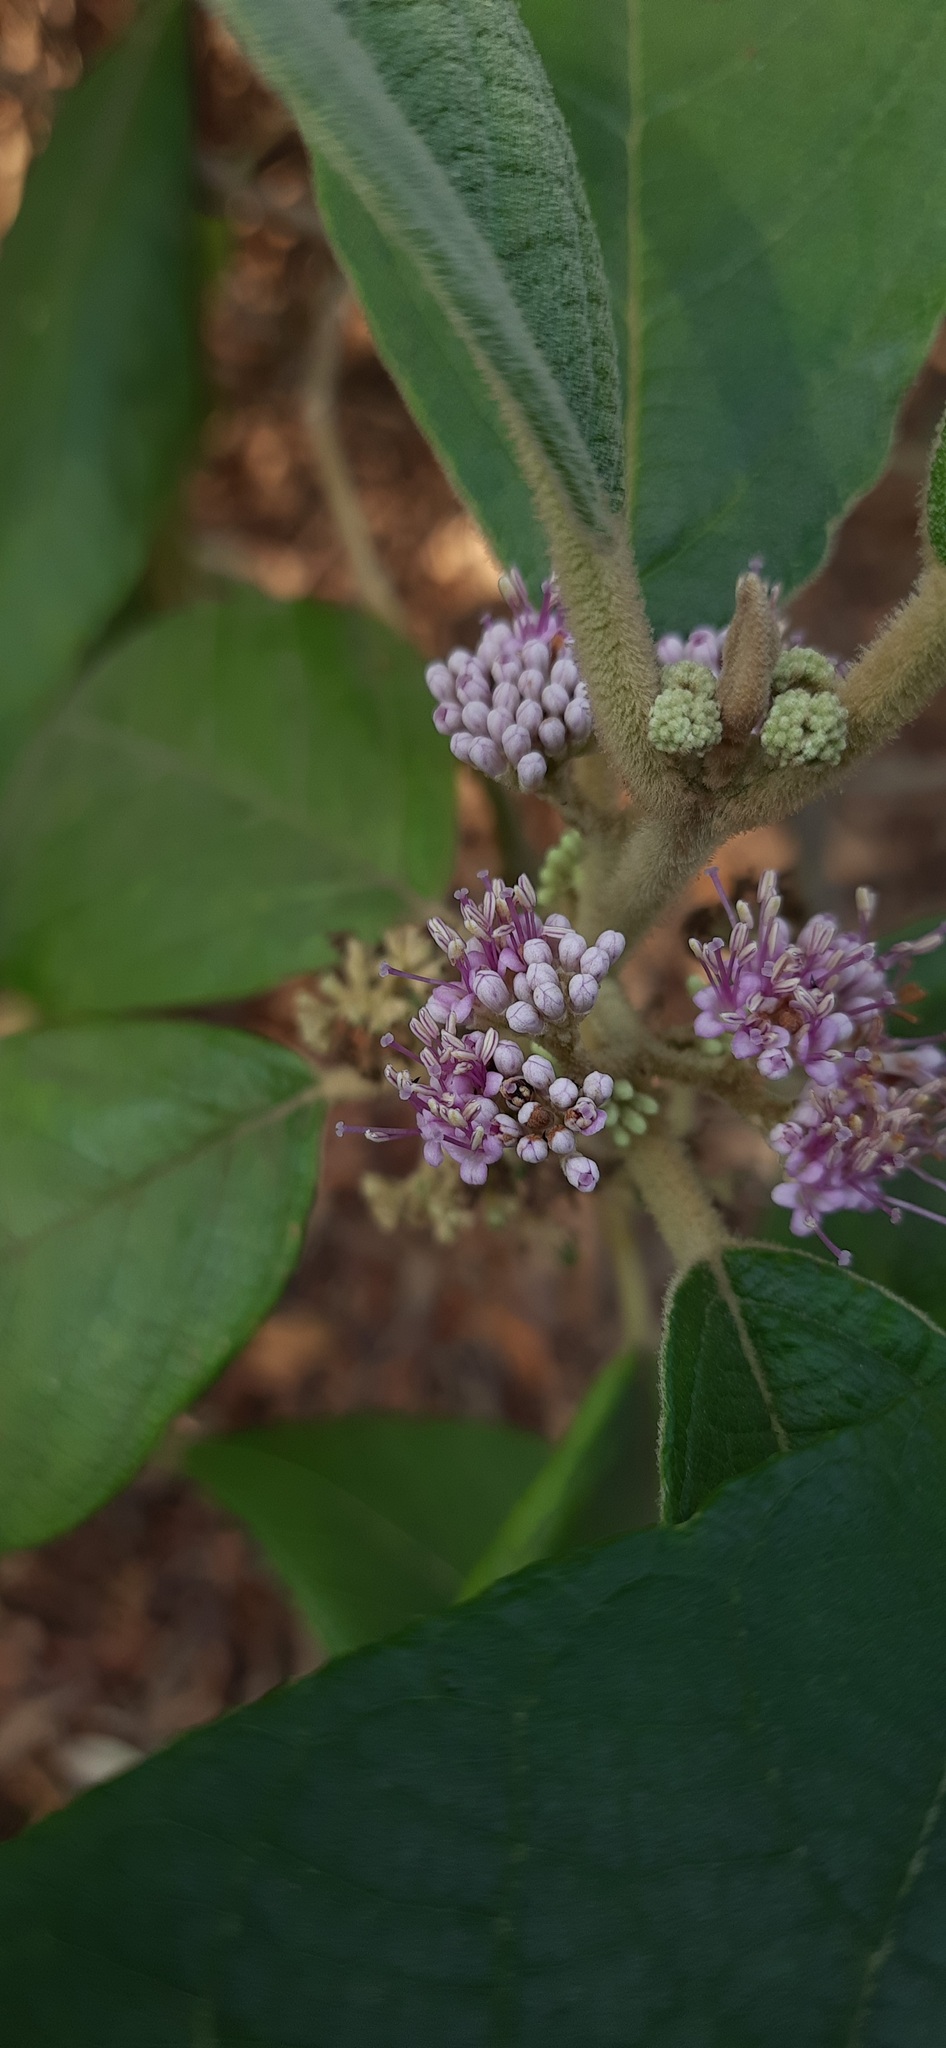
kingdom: Plantae
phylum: Tracheophyta
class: Magnoliopsida
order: Lamiales
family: Lamiaceae
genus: Callicarpa
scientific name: Callicarpa tomentosa
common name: Great woolly malayan-lilac
